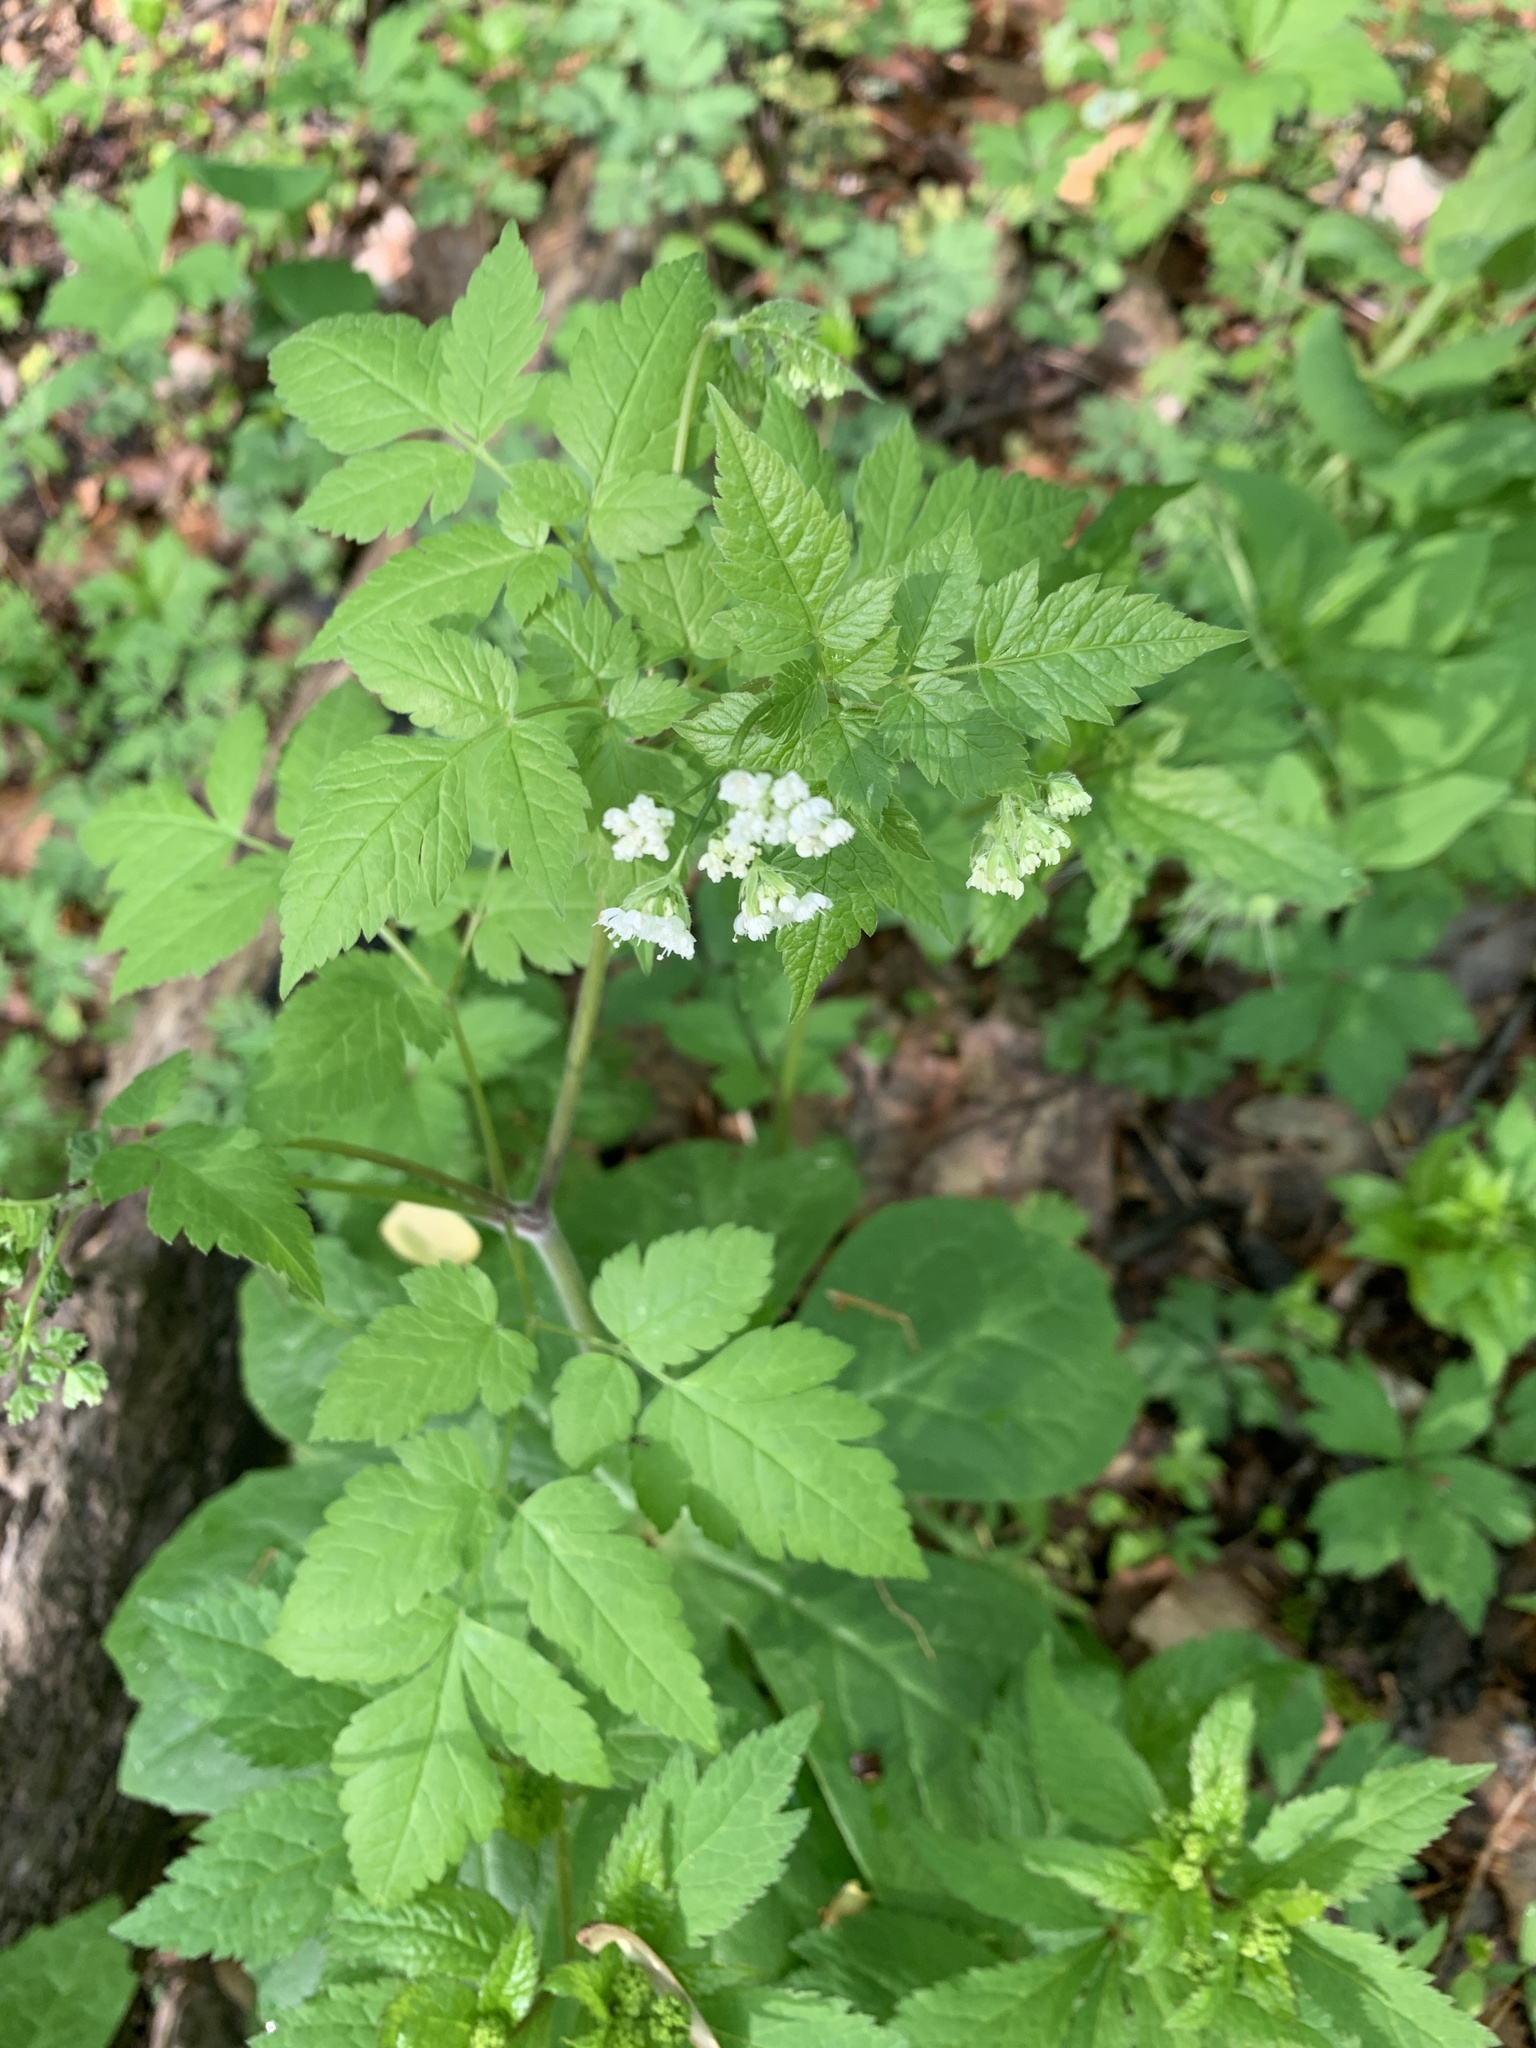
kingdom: Plantae
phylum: Tracheophyta
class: Magnoliopsida
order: Apiales
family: Apiaceae
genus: Osmorhiza
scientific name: Osmorhiza longistylis
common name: Smooth sweet cicely
